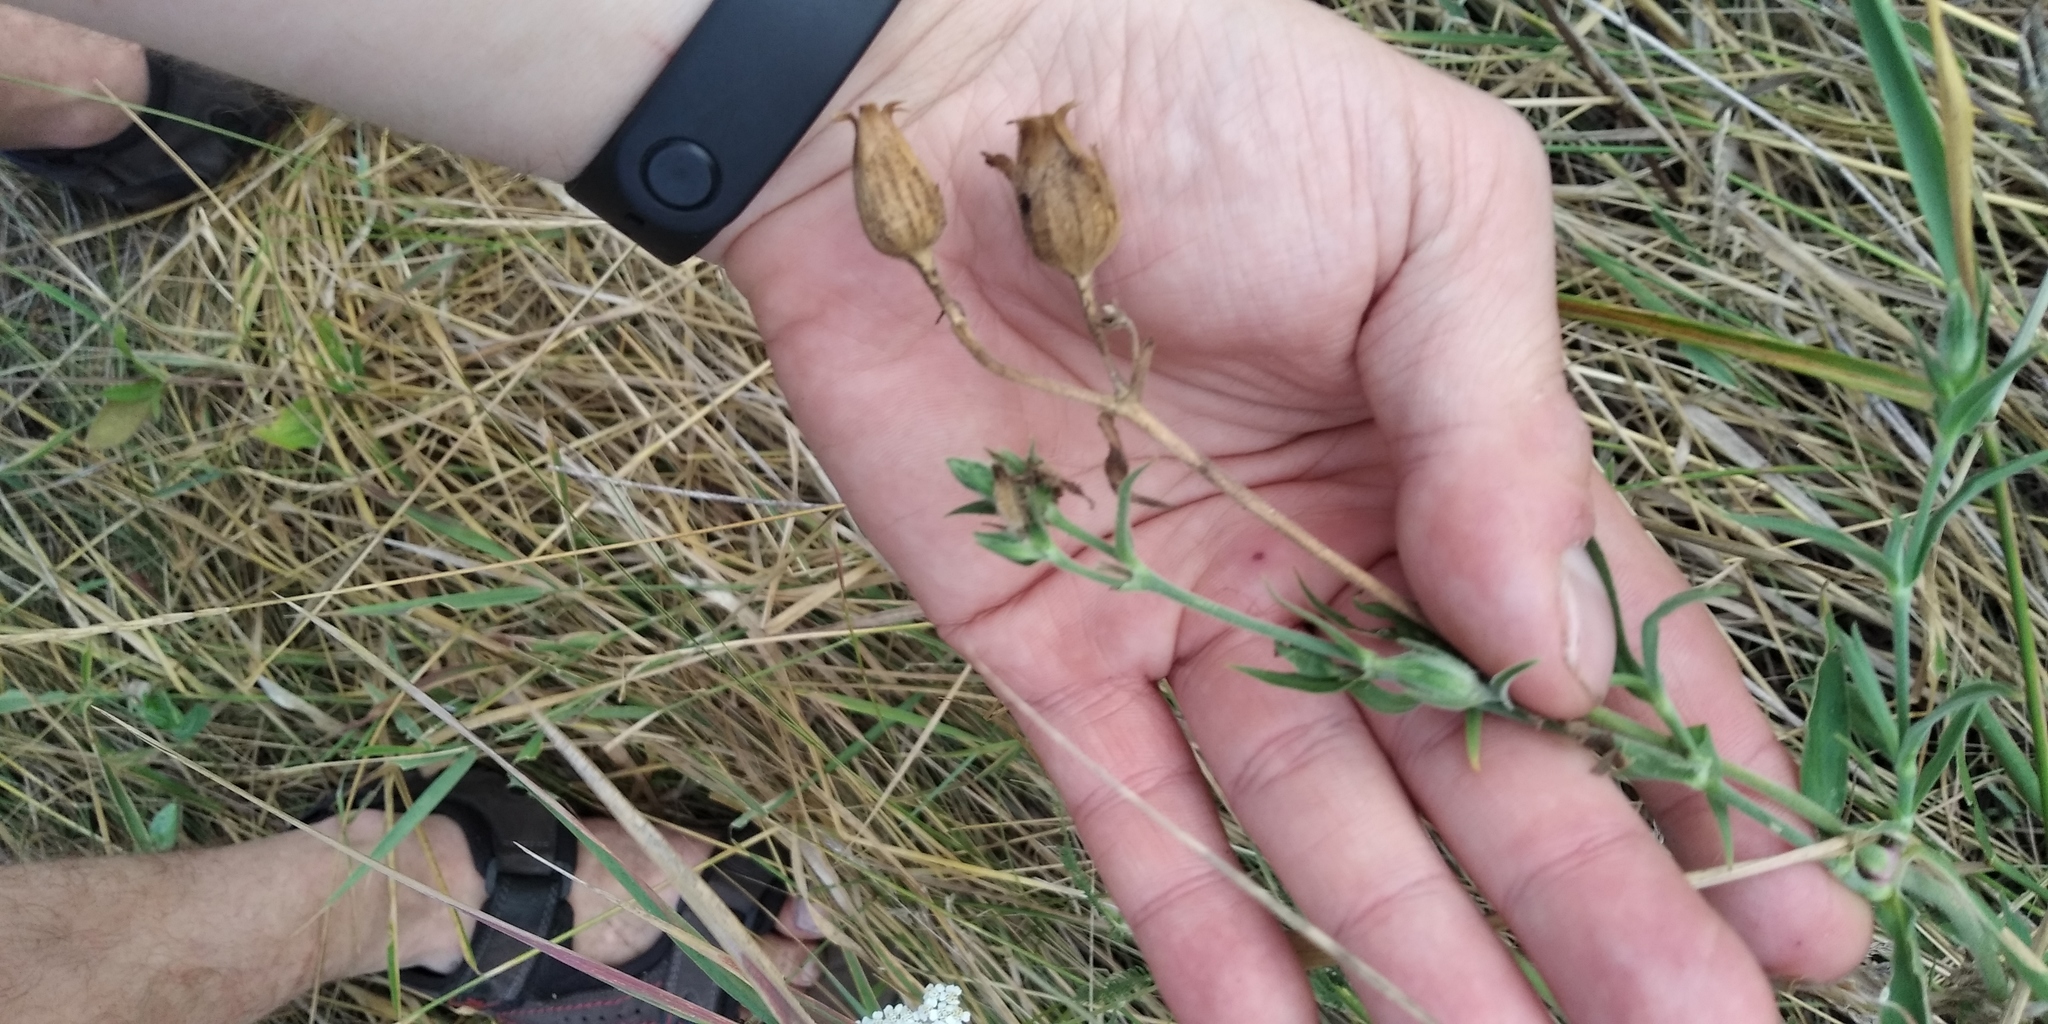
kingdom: Plantae
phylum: Tracheophyta
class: Magnoliopsida
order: Caryophyllales
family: Caryophyllaceae
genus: Silene
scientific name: Silene latifolia
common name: White campion
